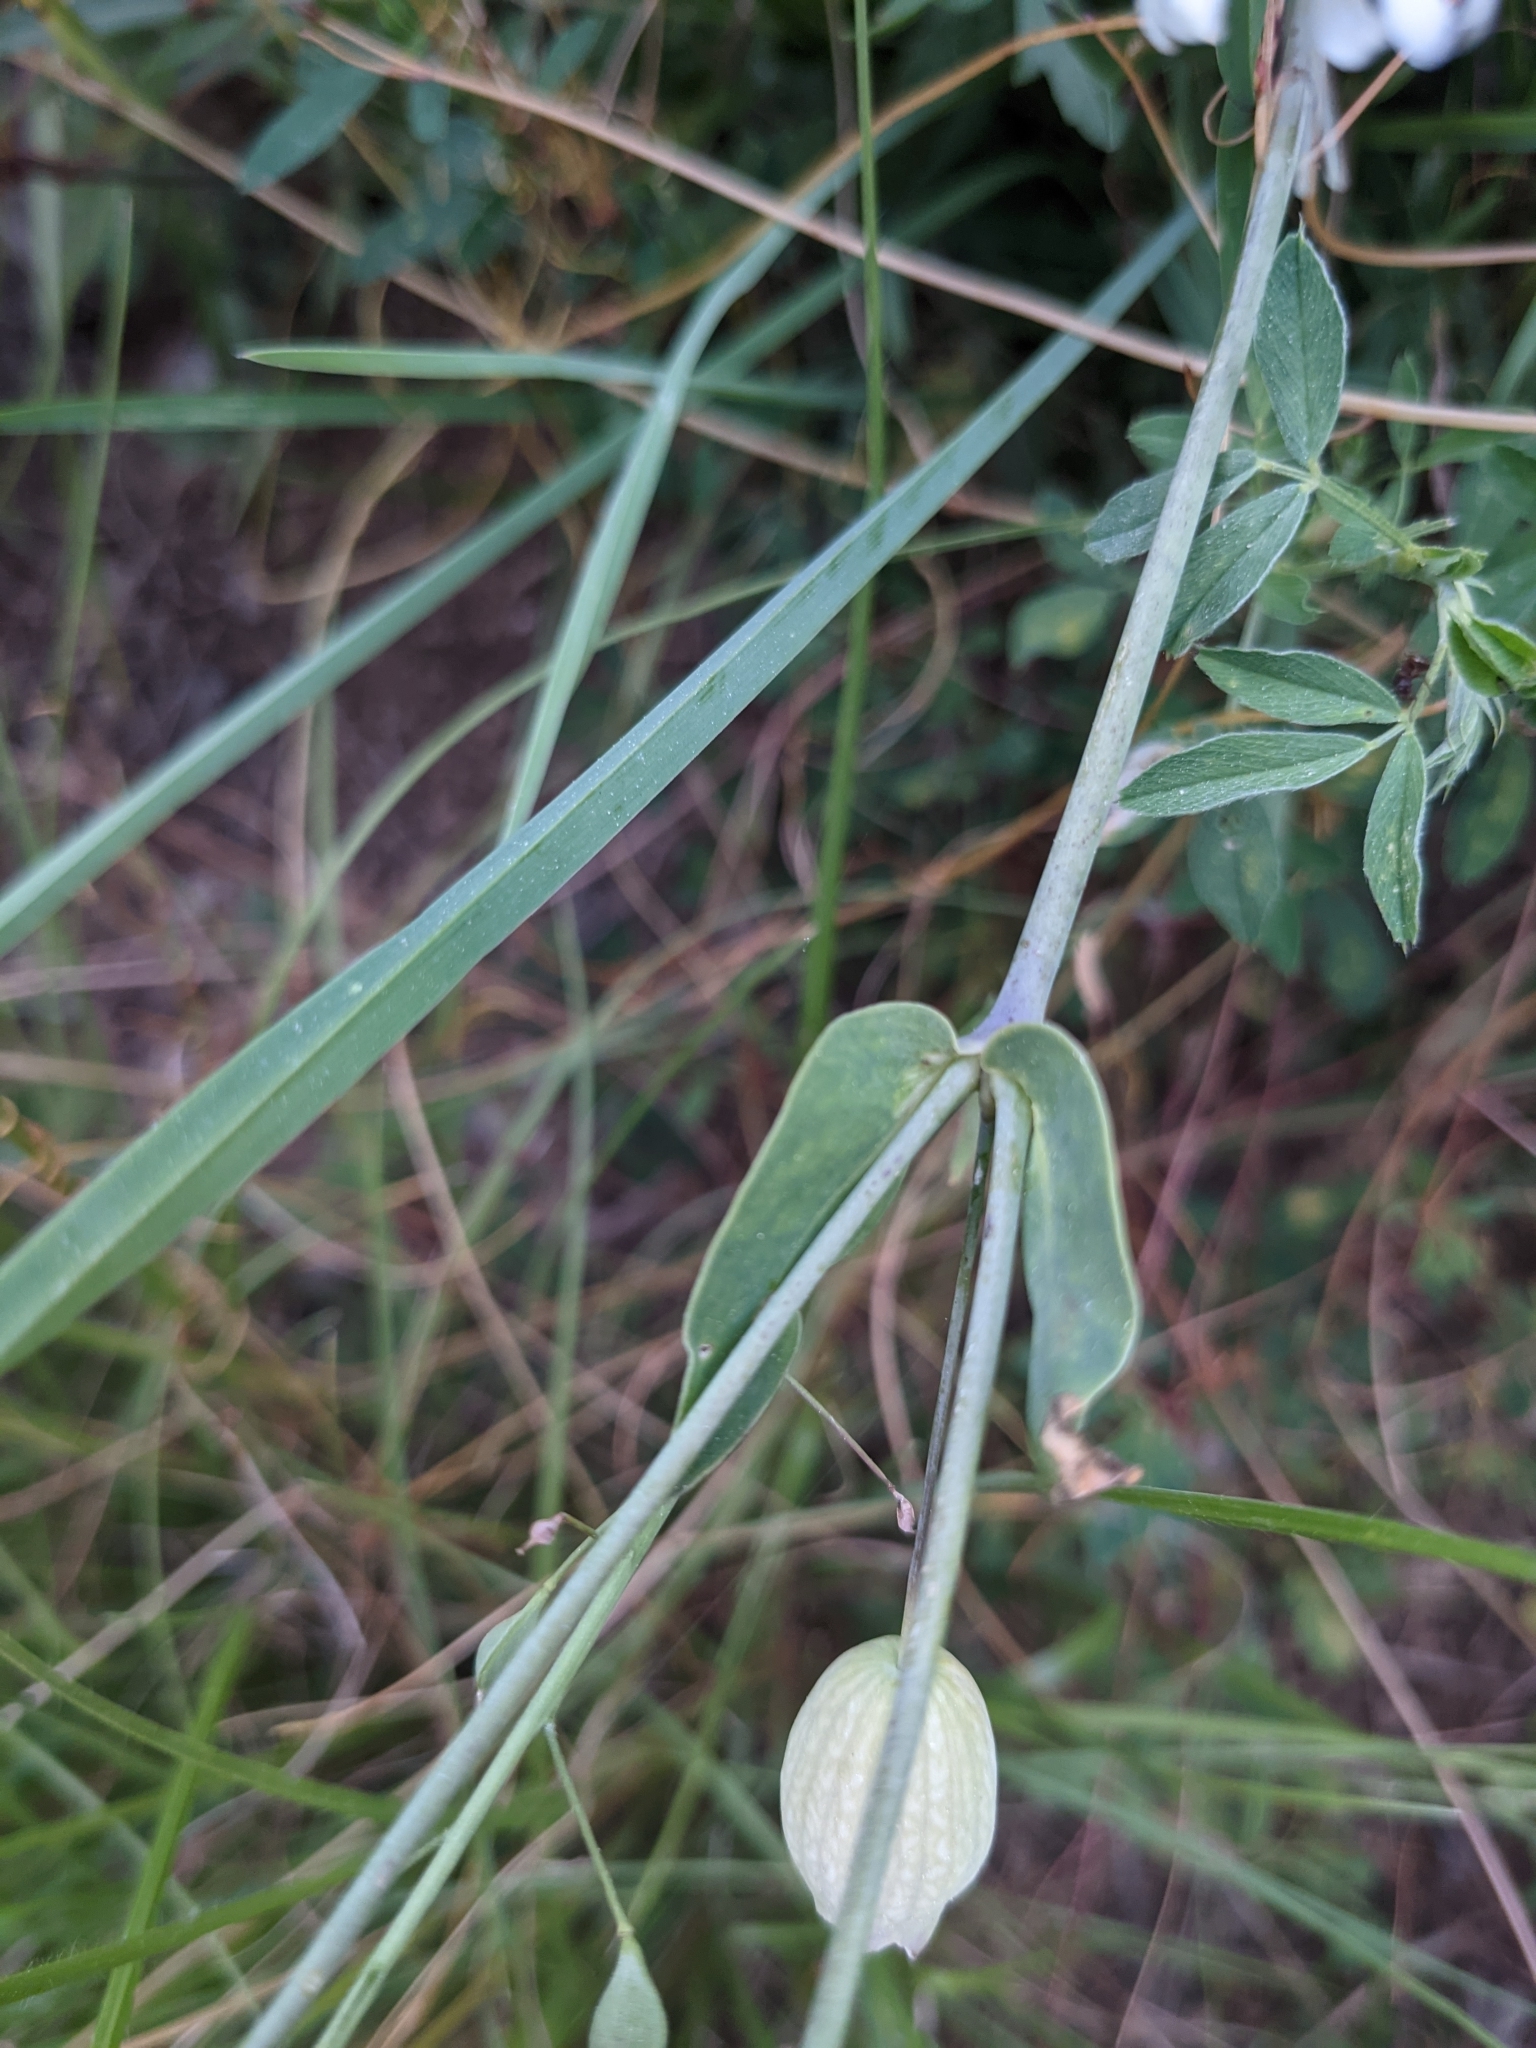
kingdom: Plantae
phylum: Tracheophyta
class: Magnoliopsida
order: Caryophyllales
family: Caryophyllaceae
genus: Silene
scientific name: Silene vulgaris
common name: Bladder campion
